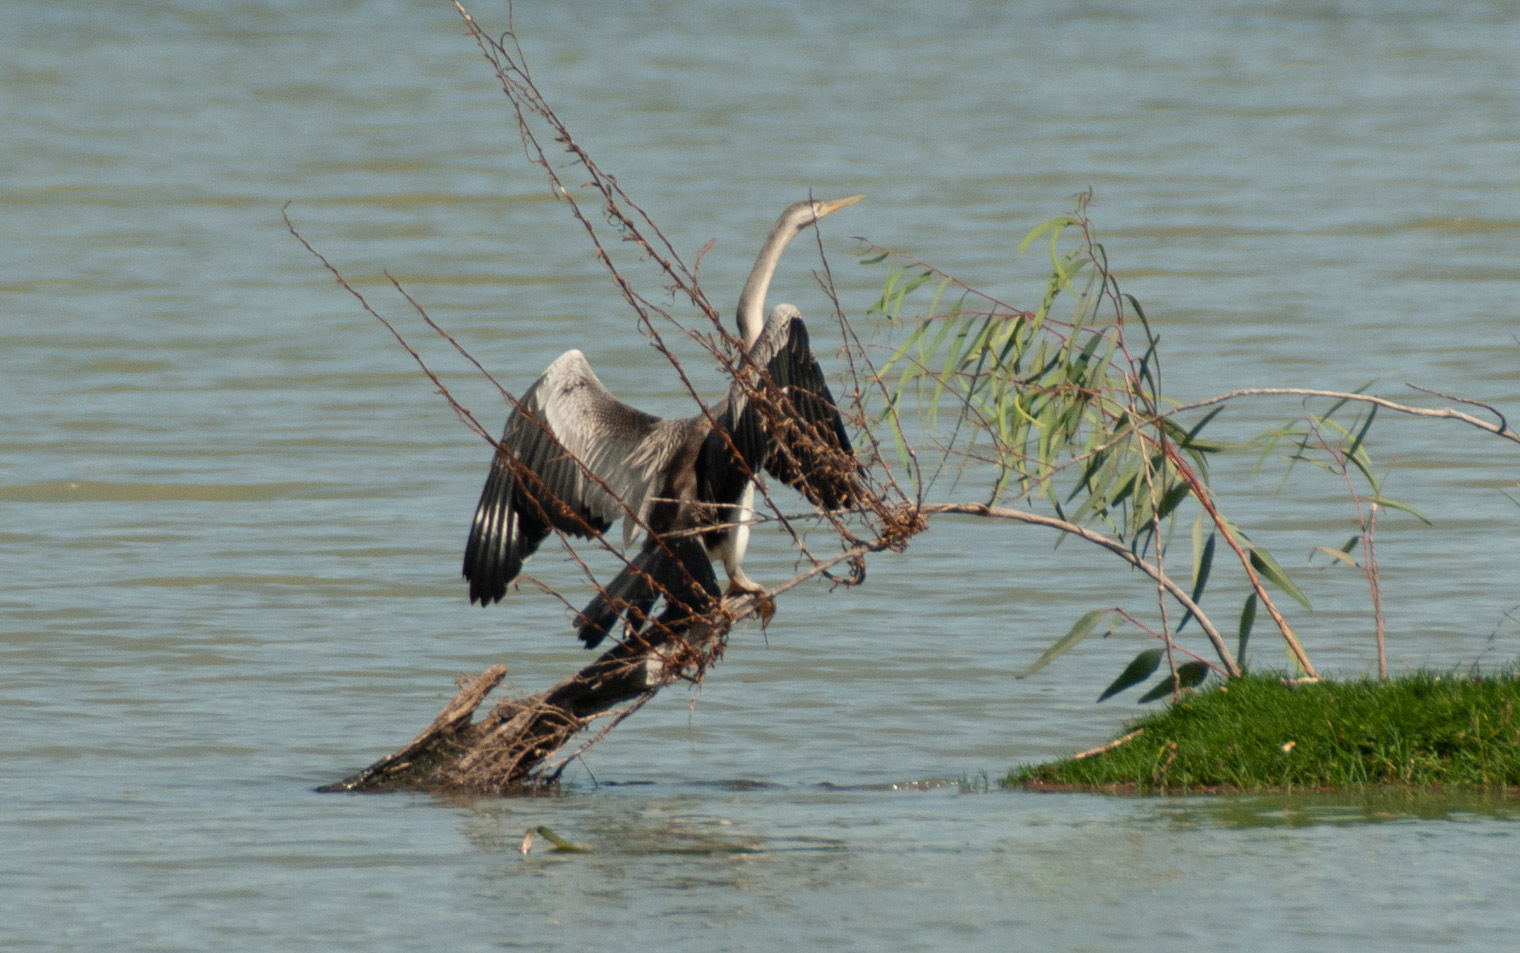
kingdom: Animalia
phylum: Chordata
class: Aves
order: Suliformes
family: Anhingidae
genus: Anhinga
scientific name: Anhinga novaehollandiae
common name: Australasian darter
